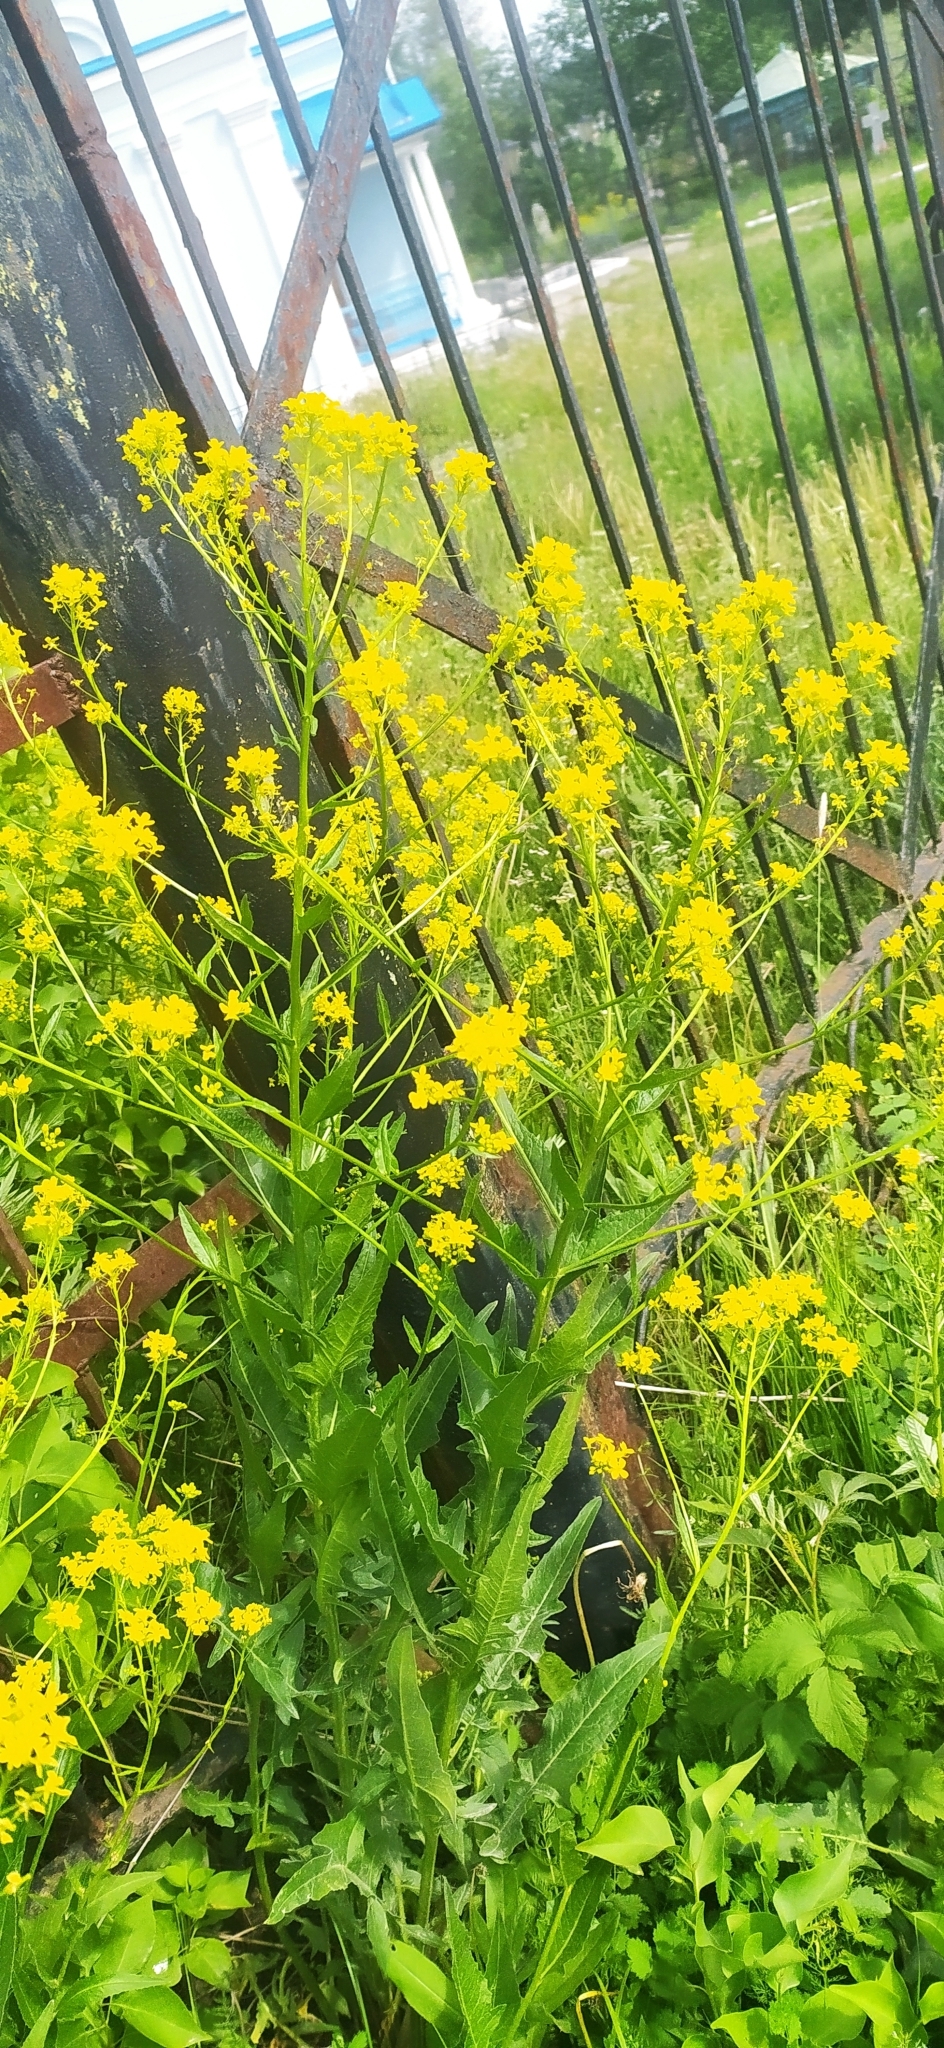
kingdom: Plantae
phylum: Tracheophyta
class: Magnoliopsida
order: Brassicales
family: Brassicaceae
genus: Bunias
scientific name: Bunias orientalis
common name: Warty-cabbage
